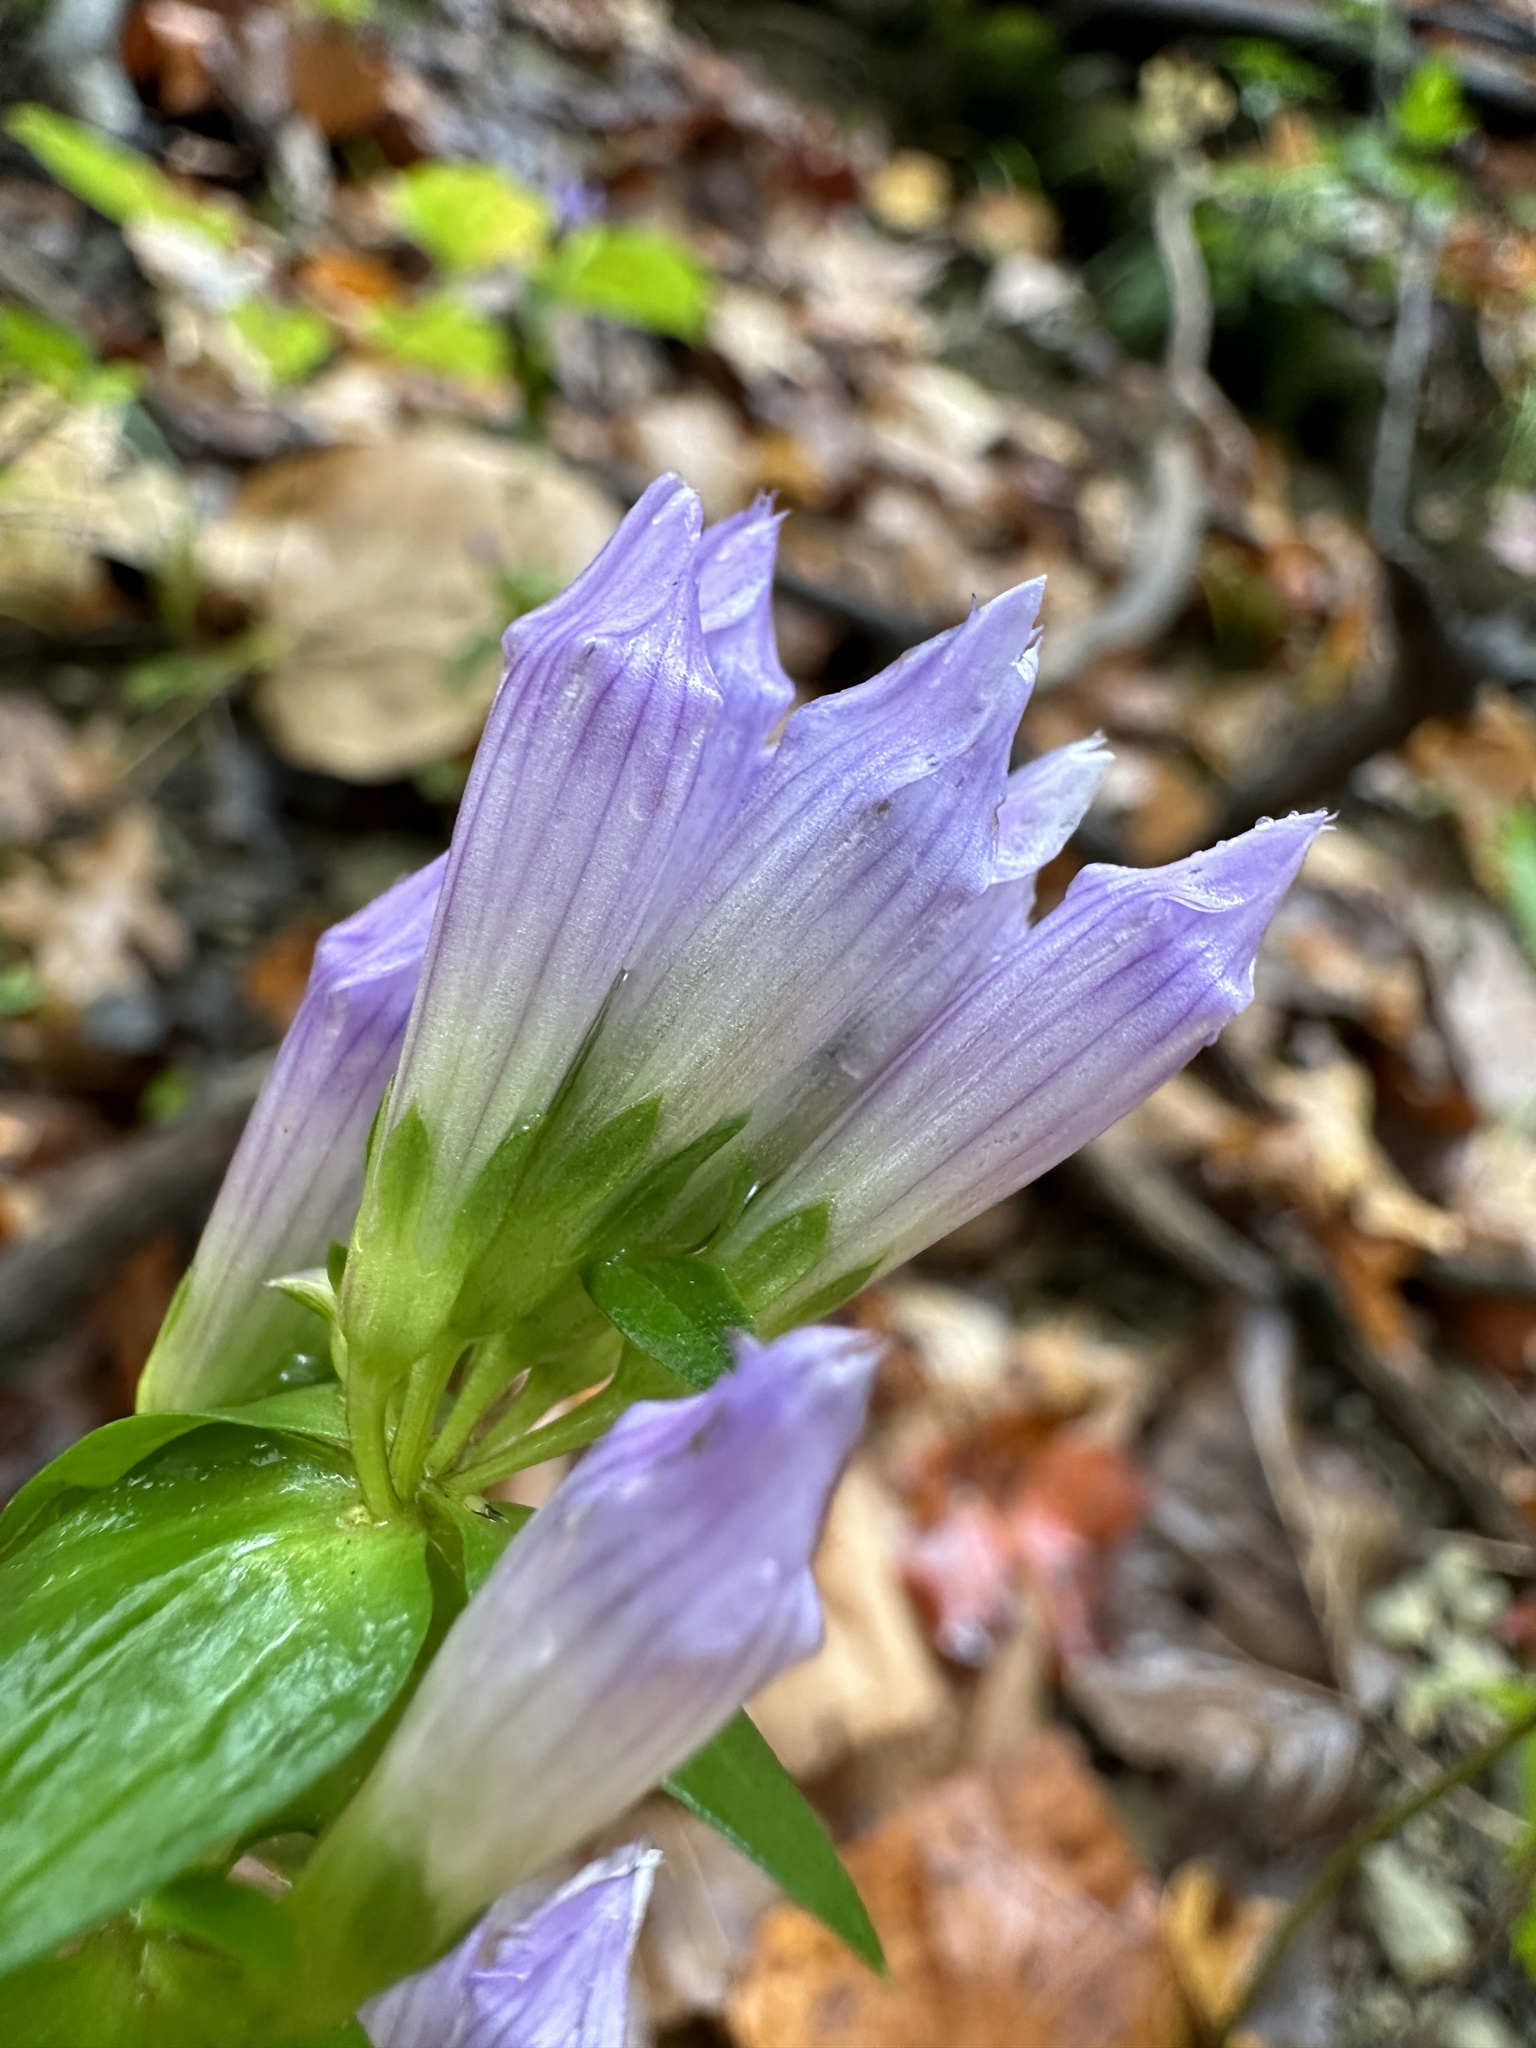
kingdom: Plantae
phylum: Tracheophyta
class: Magnoliopsida
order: Gentianales
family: Gentianaceae
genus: Gentianella
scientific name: Gentianella quinquefolia
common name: Agueweed
